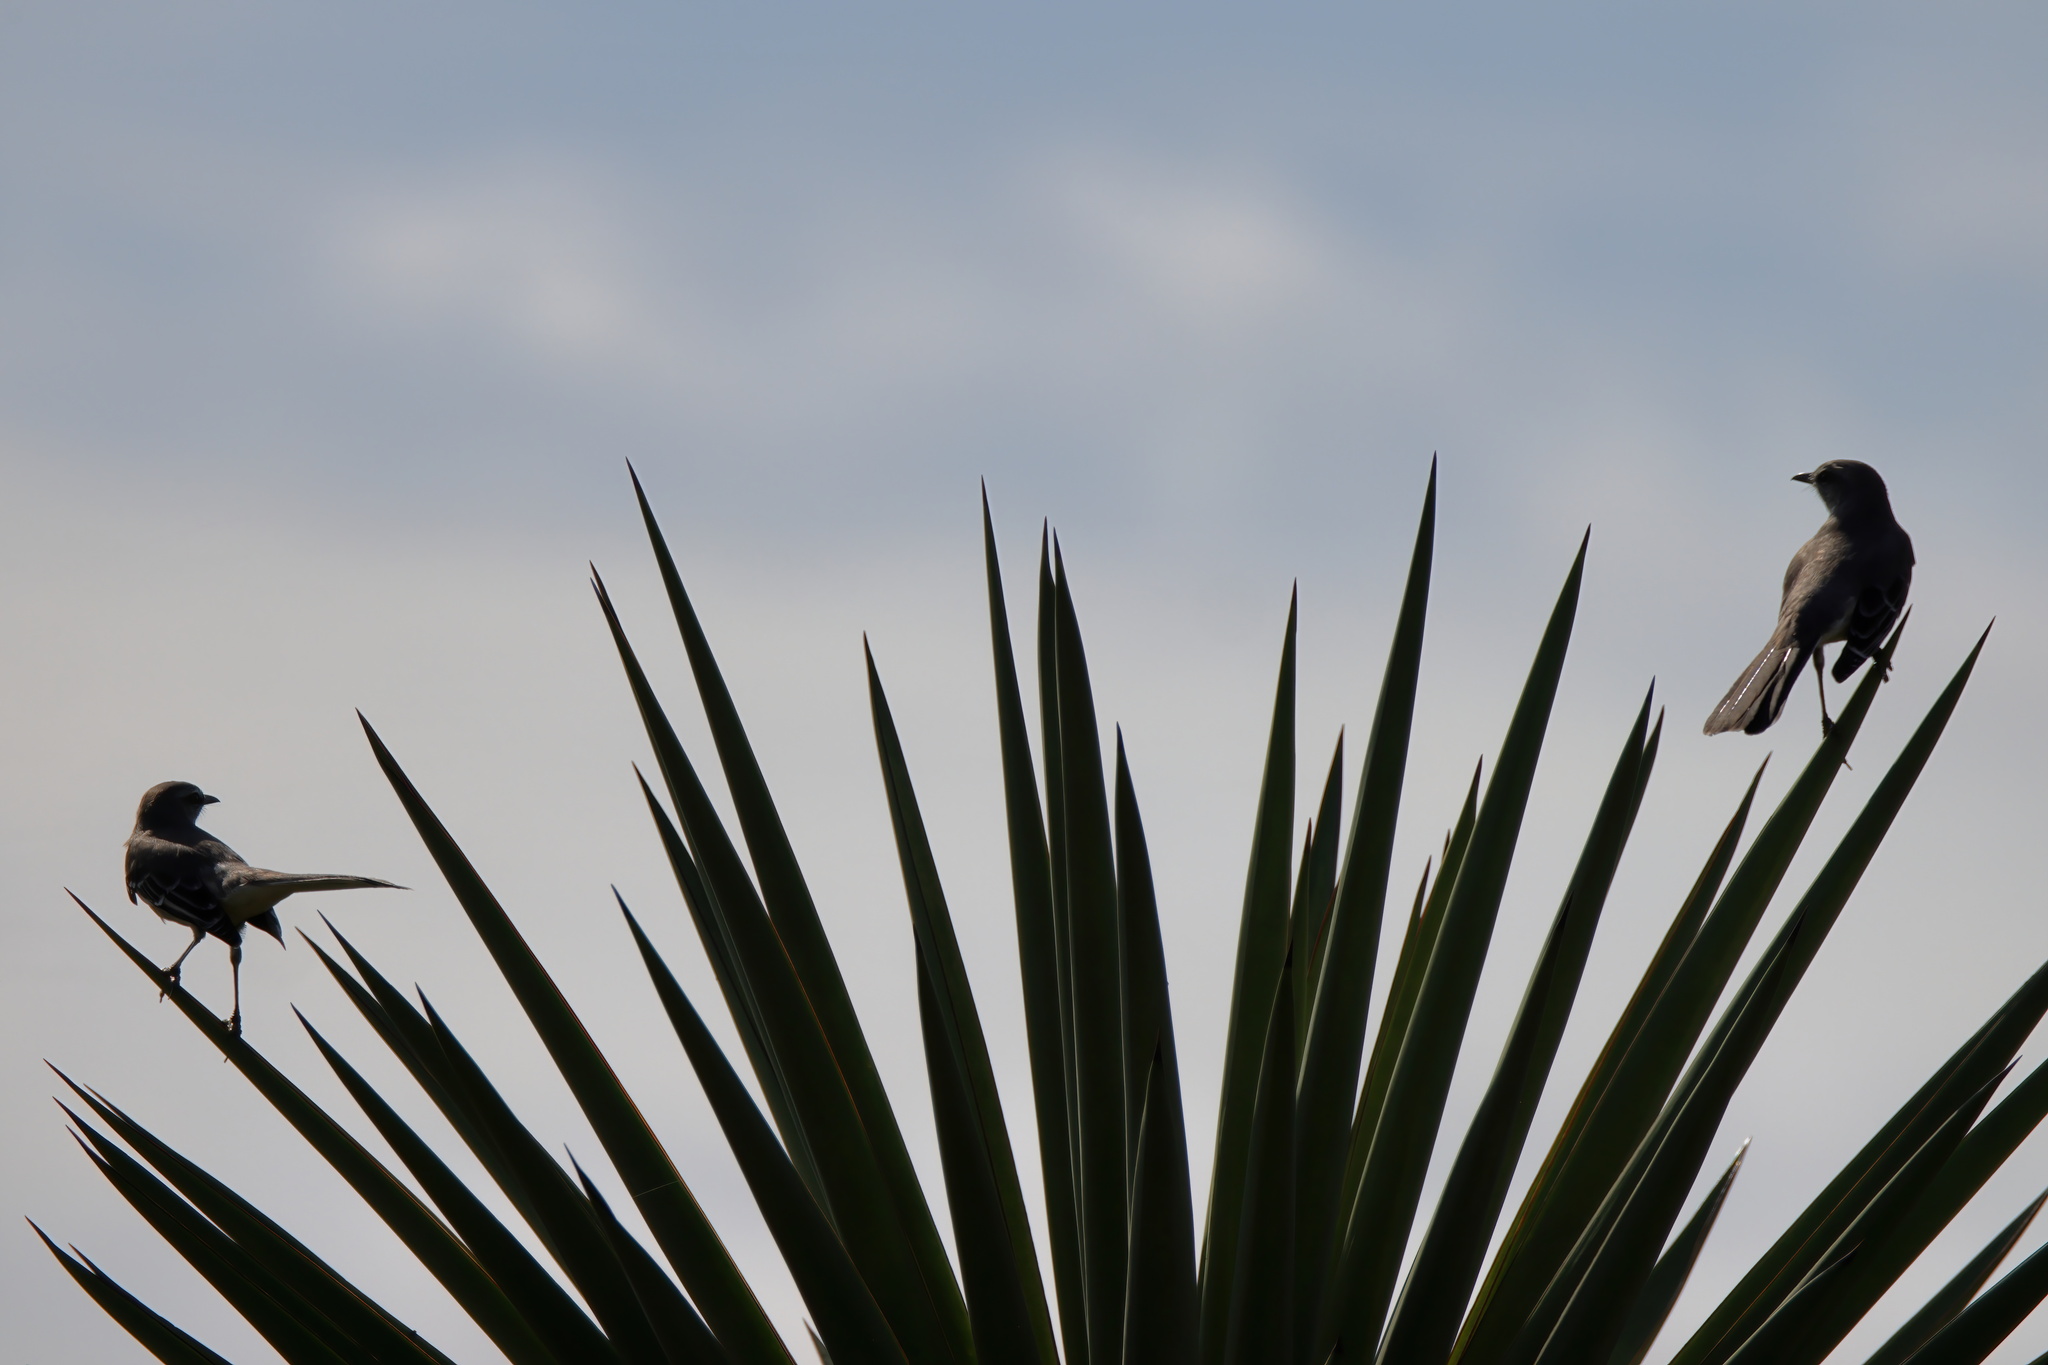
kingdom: Animalia
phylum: Chordata
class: Aves
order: Passeriformes
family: Mimidae
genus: Mimus
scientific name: Mimus polyglottos
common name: Northern mockingbird
